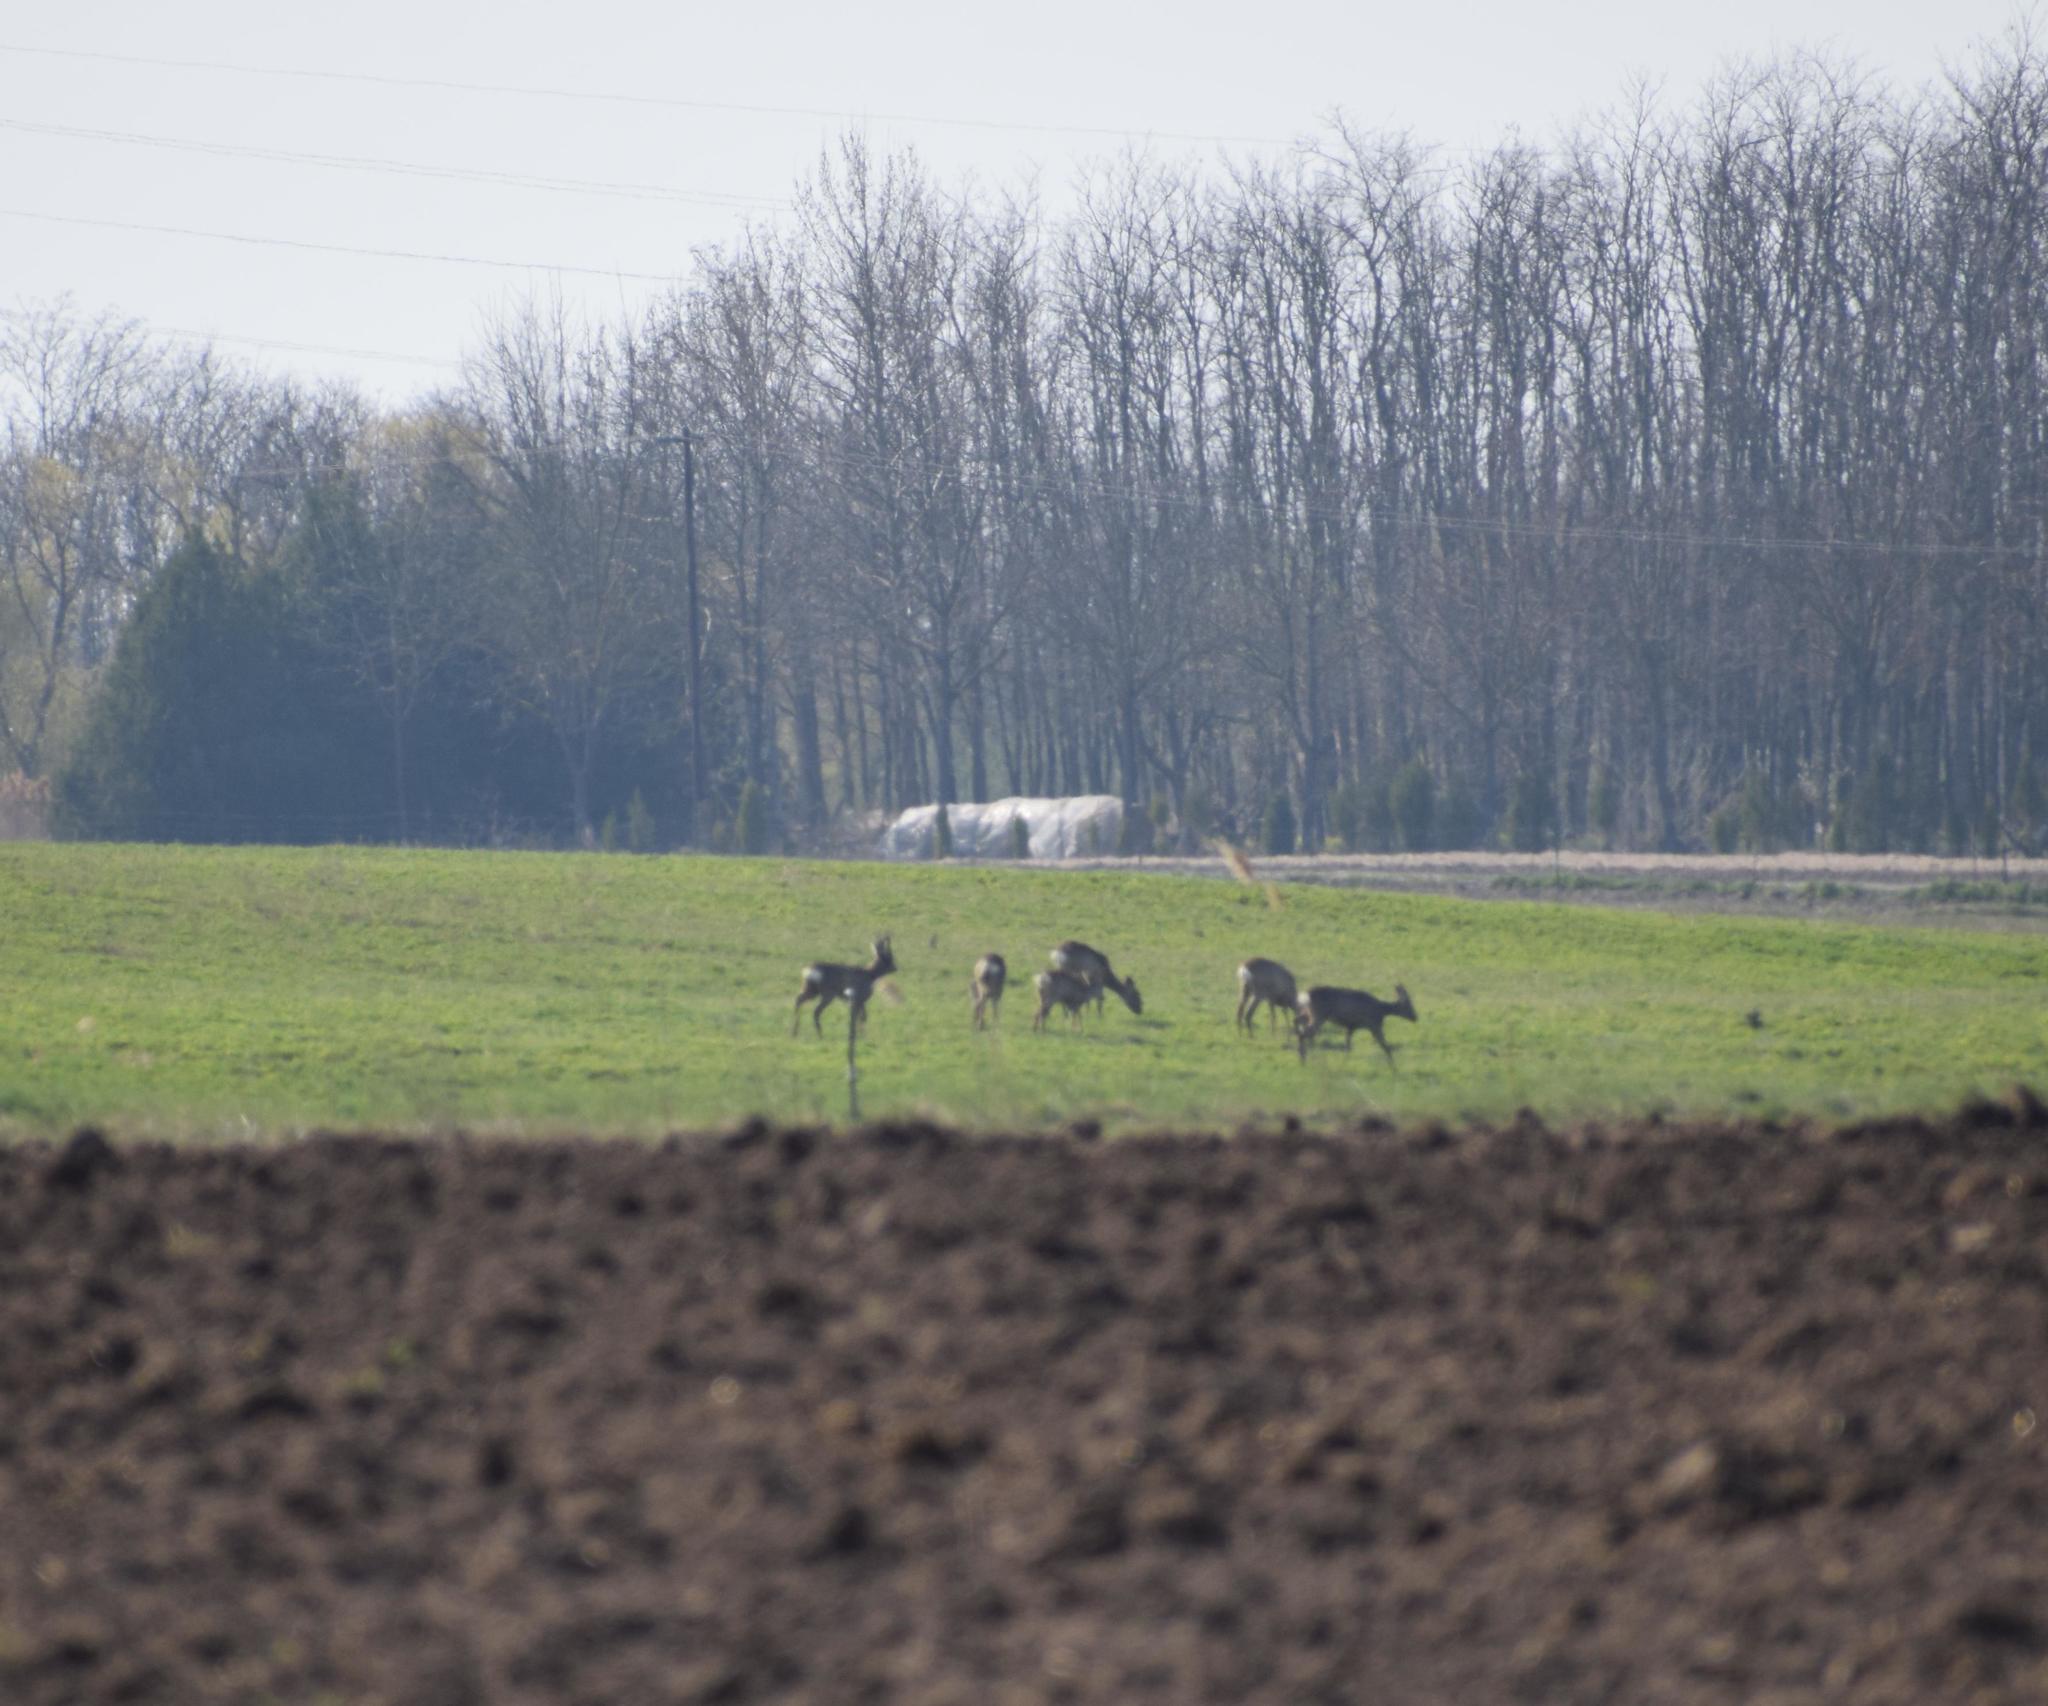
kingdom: Animalia
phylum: Chordata
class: Mammalia
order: Artiodactyla
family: Cervidae
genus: Capreolus
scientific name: Capreolus capreolus
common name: Western roe deer
